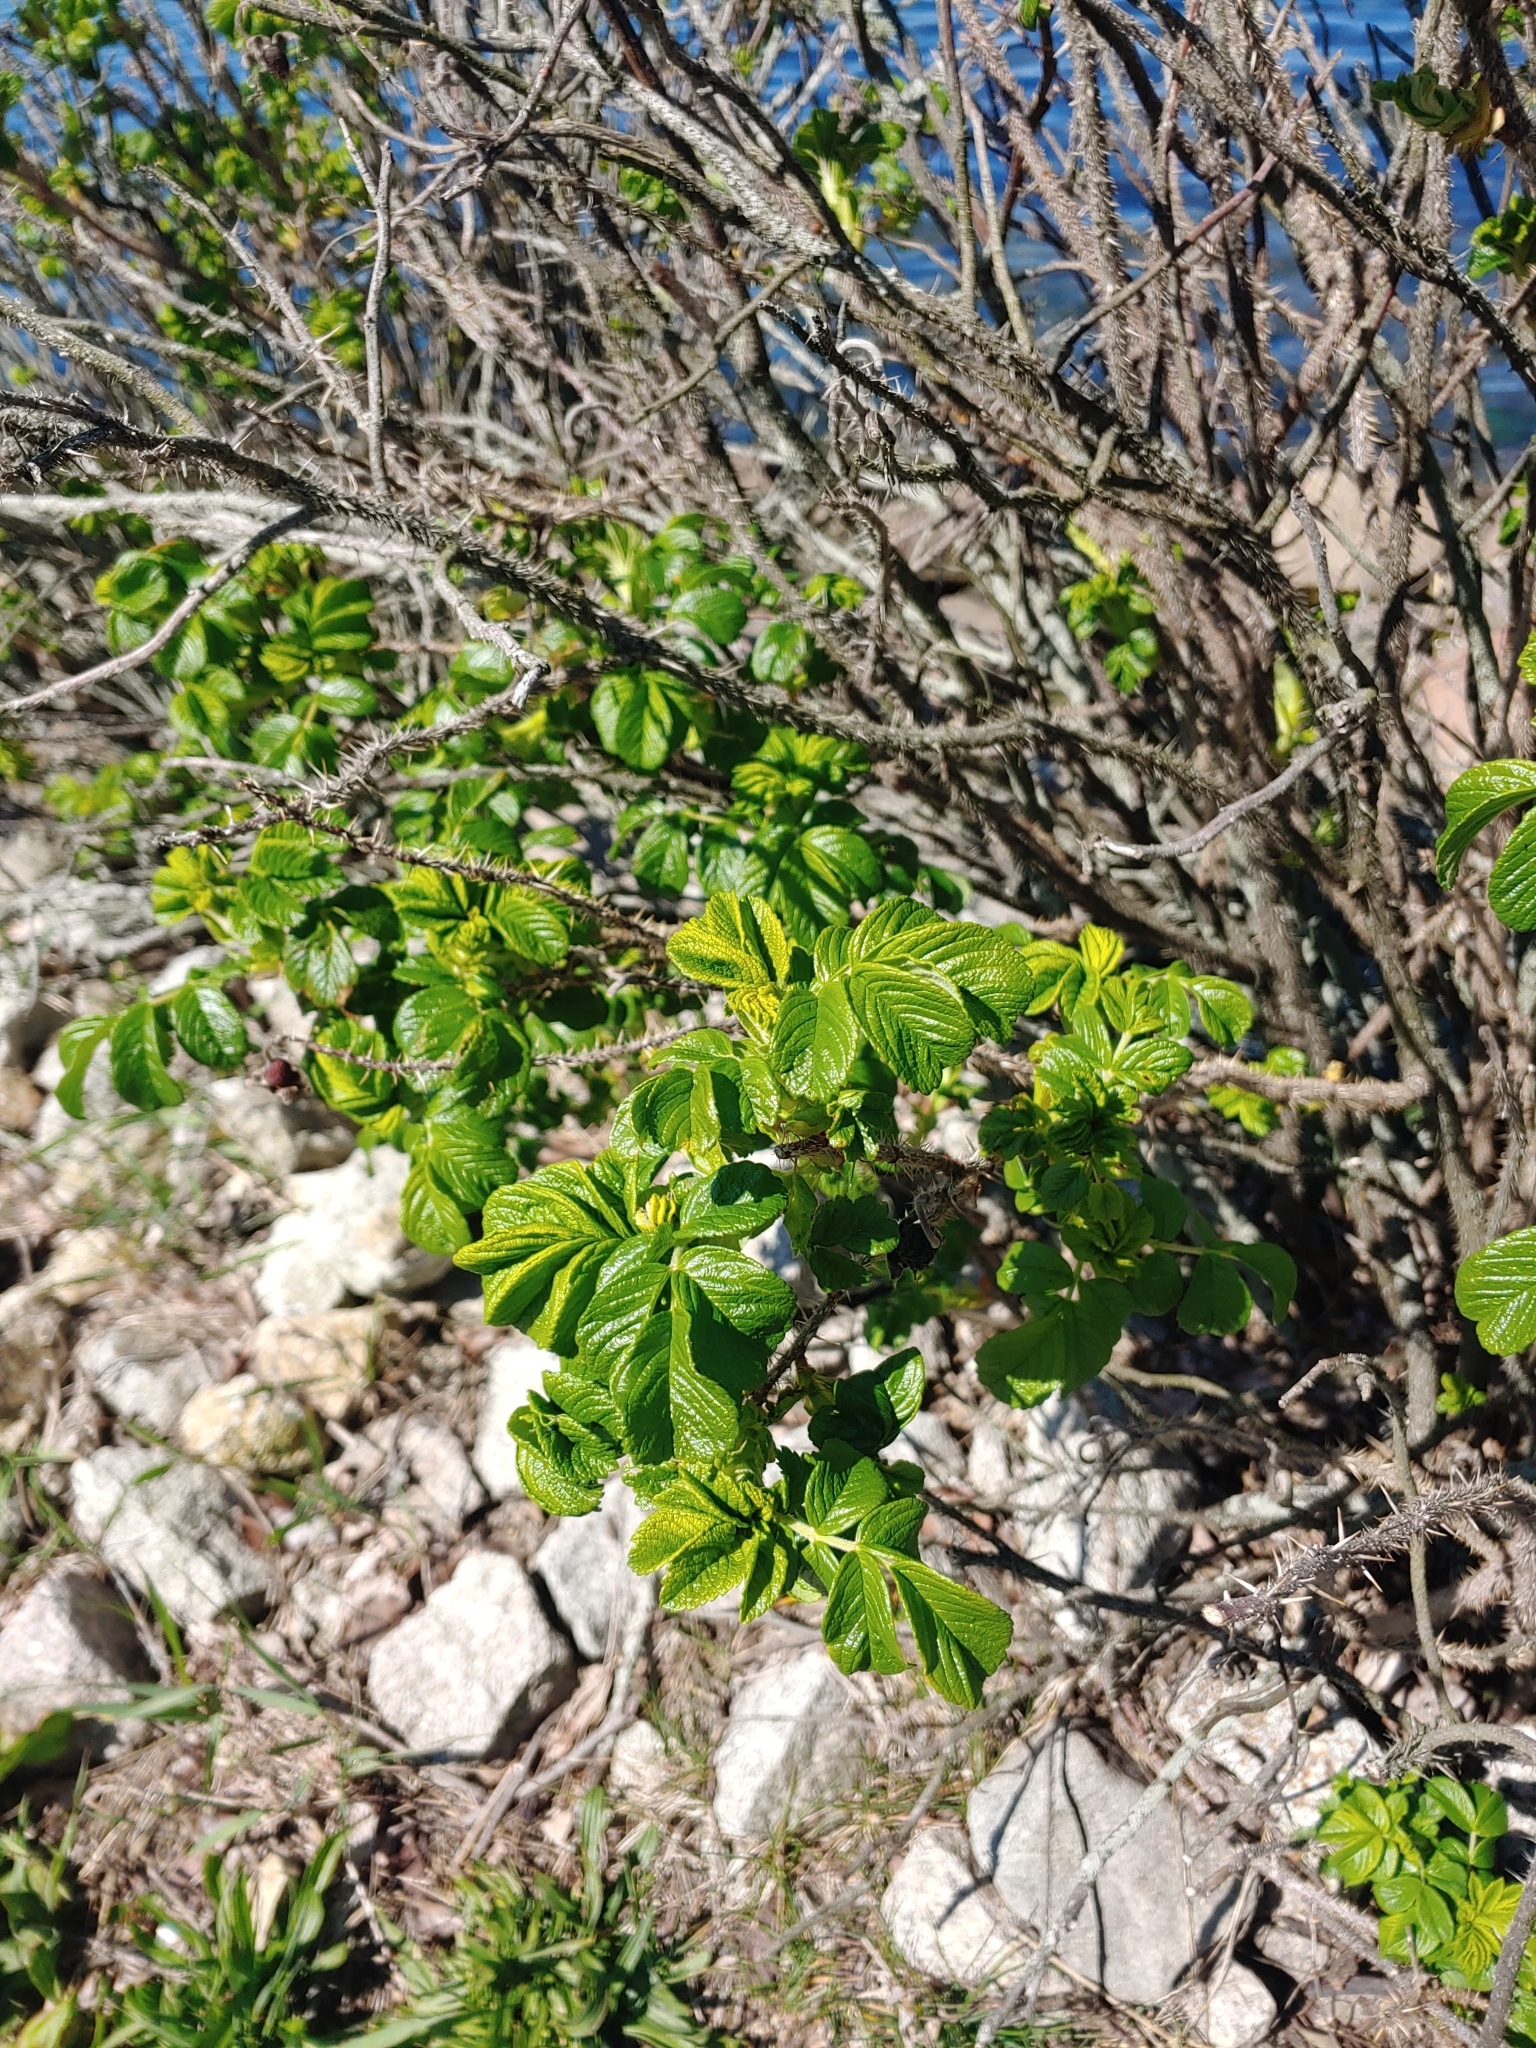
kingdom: Plantae
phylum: Tracheophyta
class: Magnoliopsida
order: Rosales
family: Rosaceae
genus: Rosa
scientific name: Rosa rugosa
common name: Japanese rose
